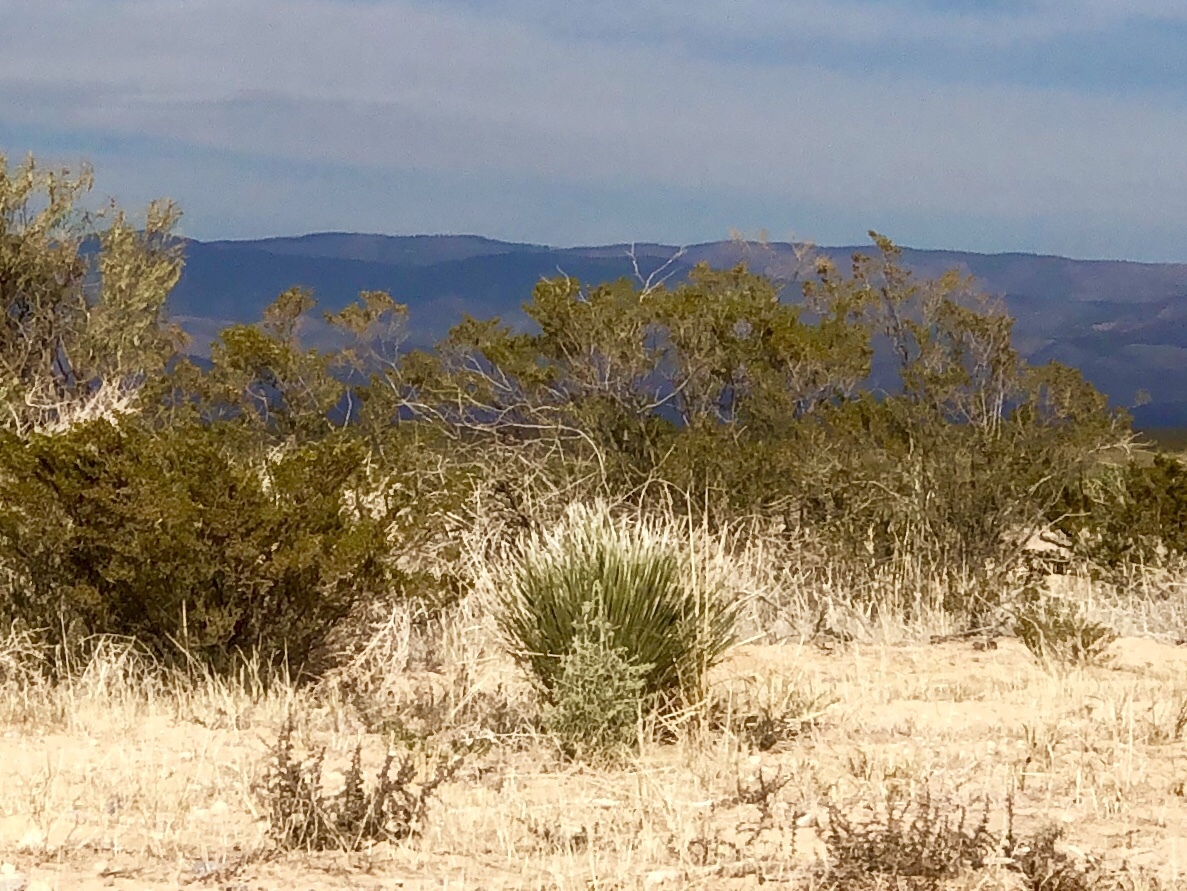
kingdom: Plantae
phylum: Tracheophyta
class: Magnoliopsida
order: Zygophyllales
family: Zygophyllaceae
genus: Larrea
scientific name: Larrea tridentata
